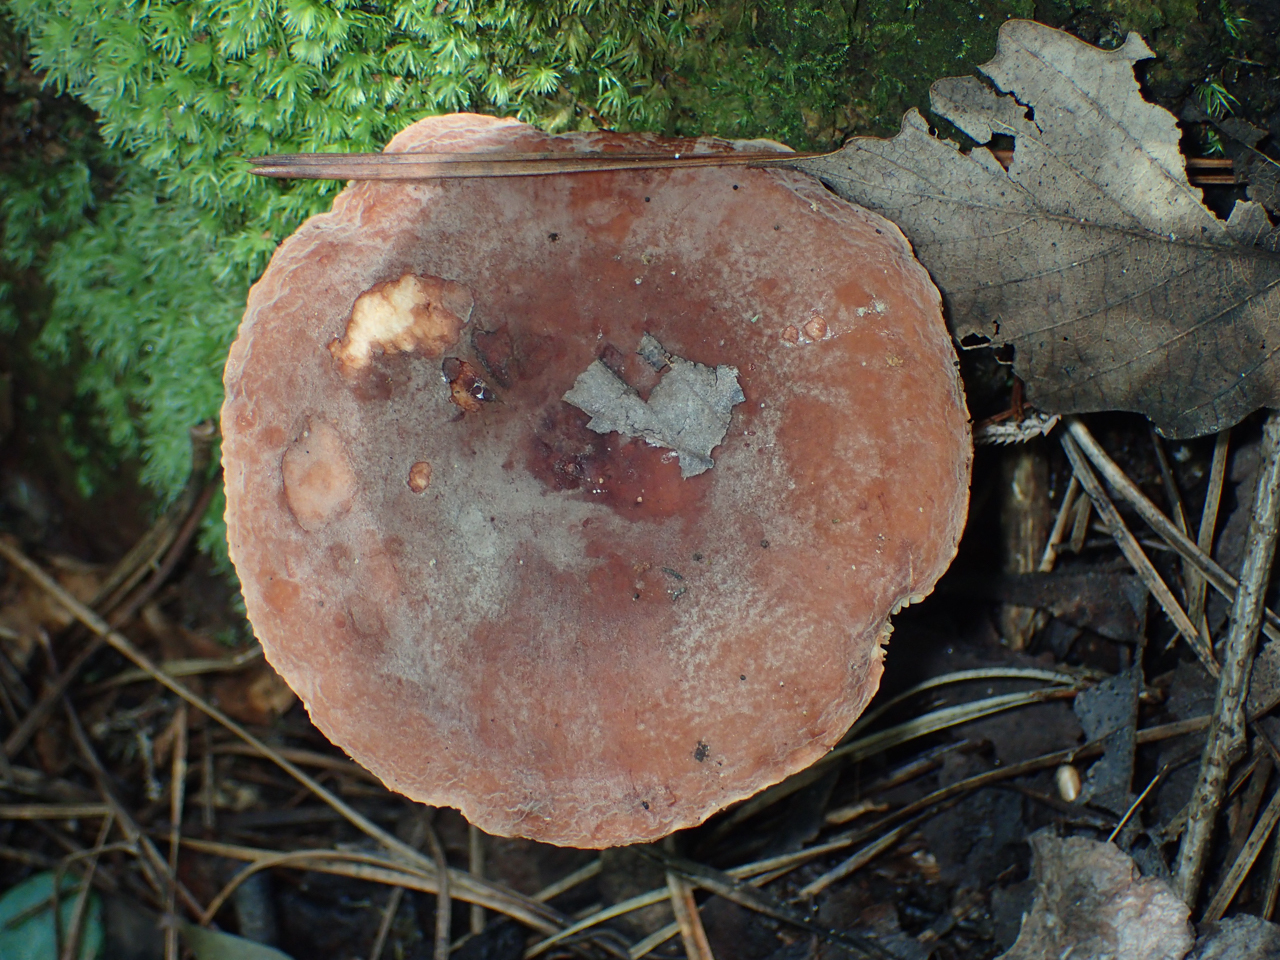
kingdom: Fungi
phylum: Basidiomycota
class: Agaricomycetes
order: Russulales
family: Russulaceae
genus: Lactarius
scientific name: Lactarius corrugis
